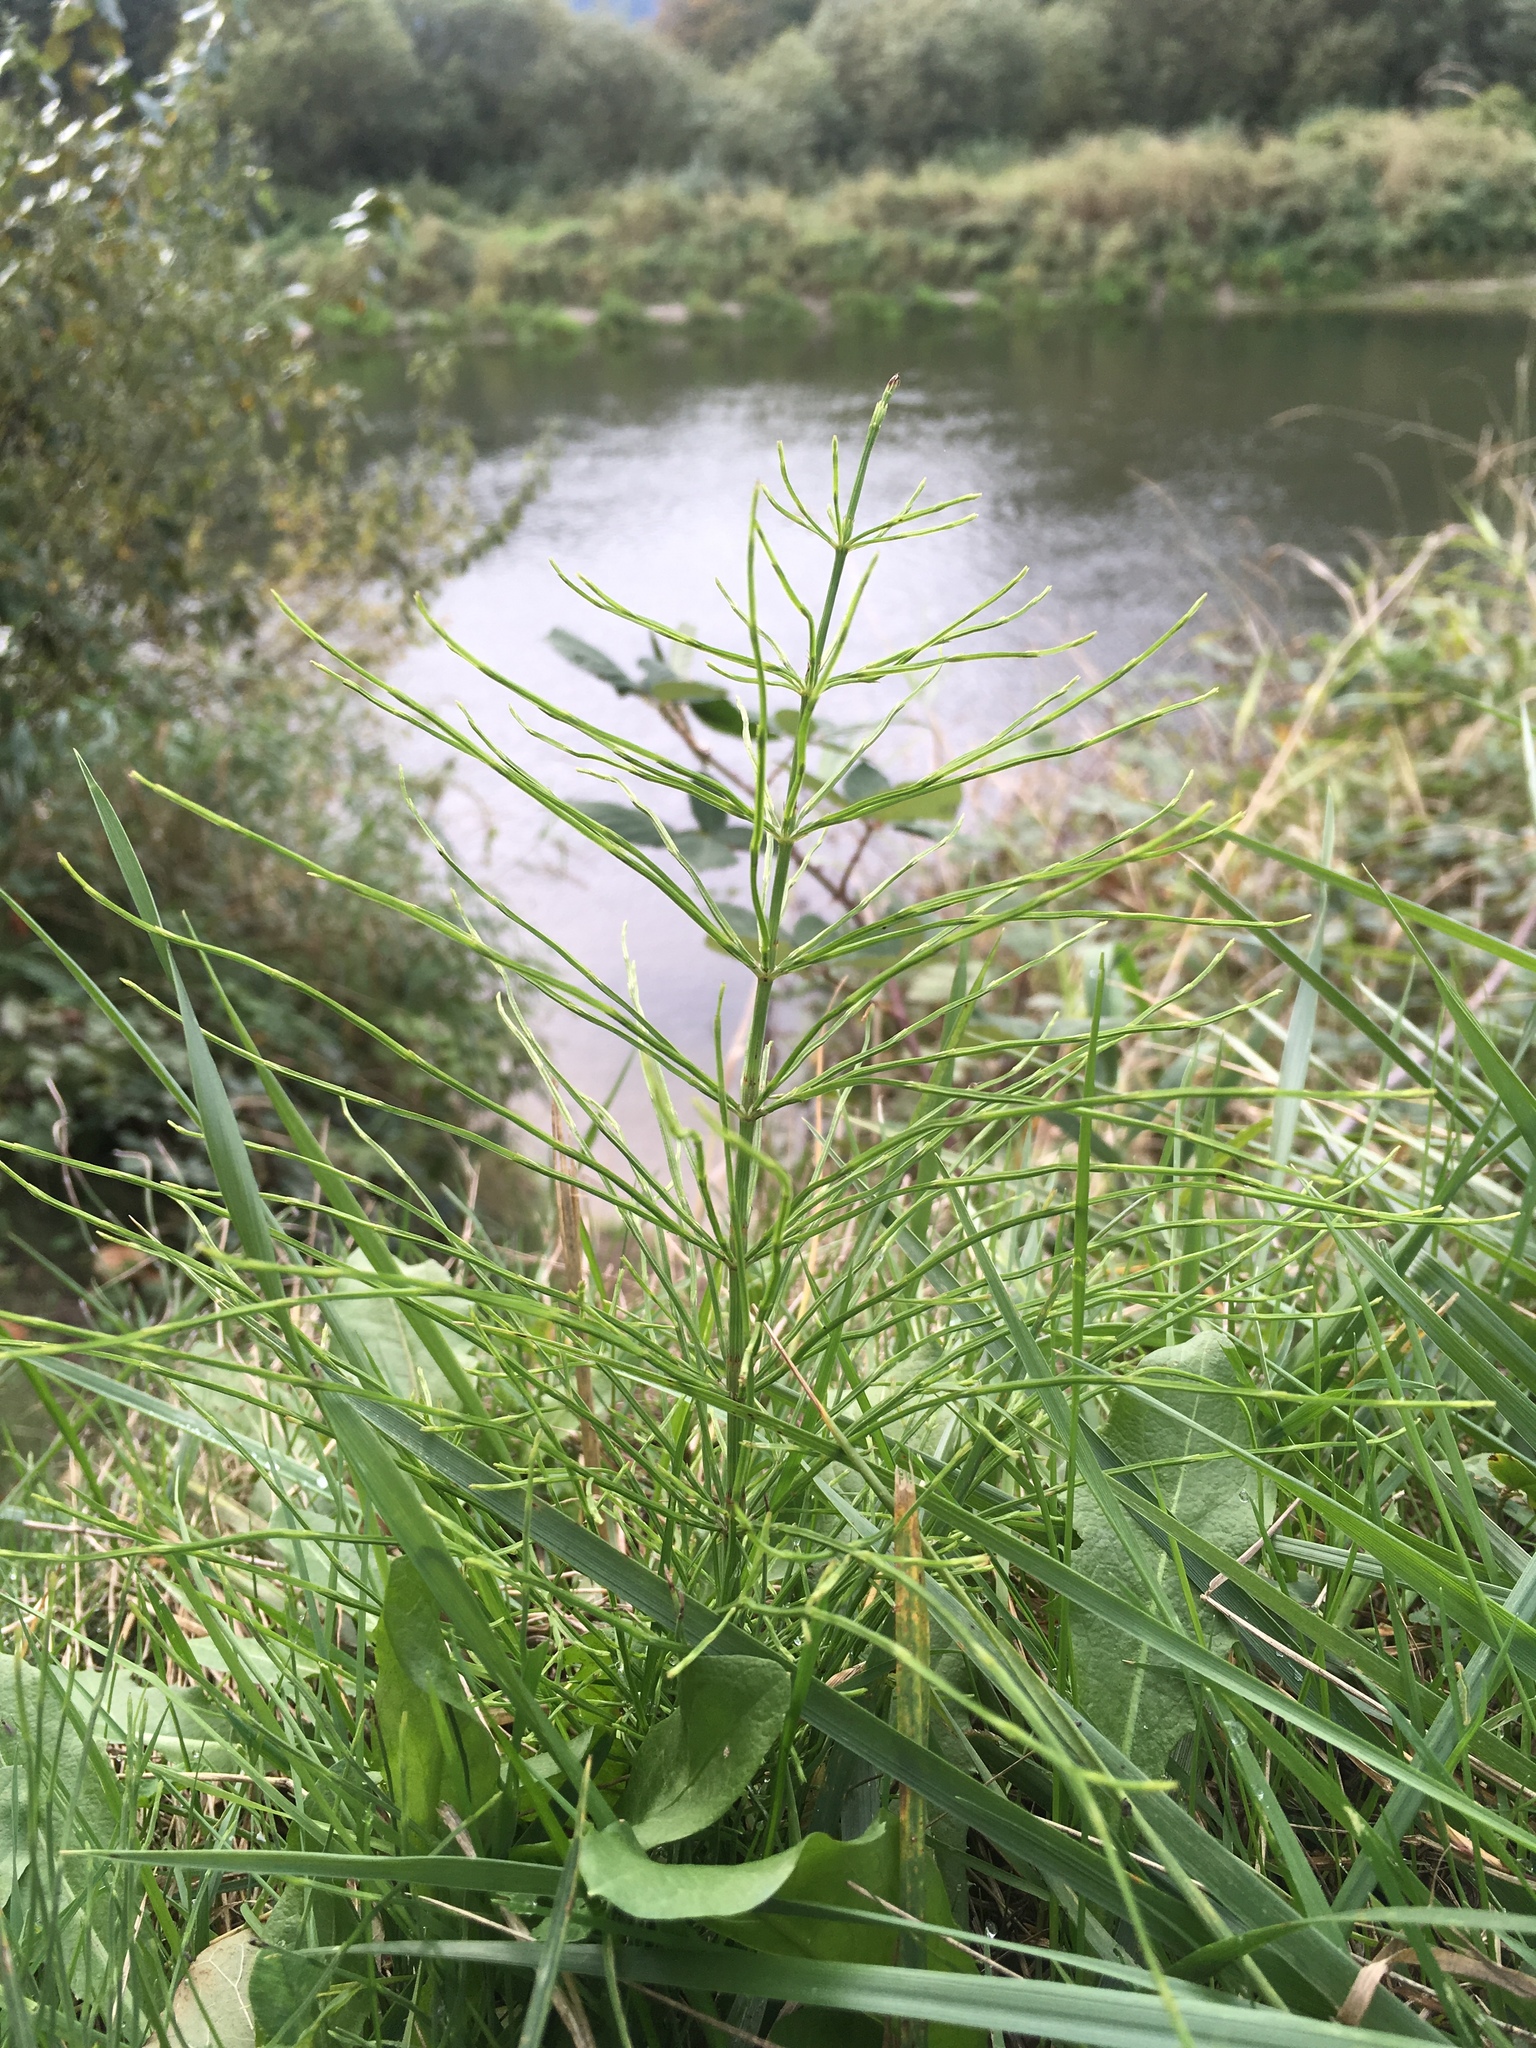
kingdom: Plantae
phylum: Tracheophyta
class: Polypodiopsida
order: Equisetales
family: Equisetaceae
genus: Equisetum
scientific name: Equisetum arvense
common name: Field horsetail
